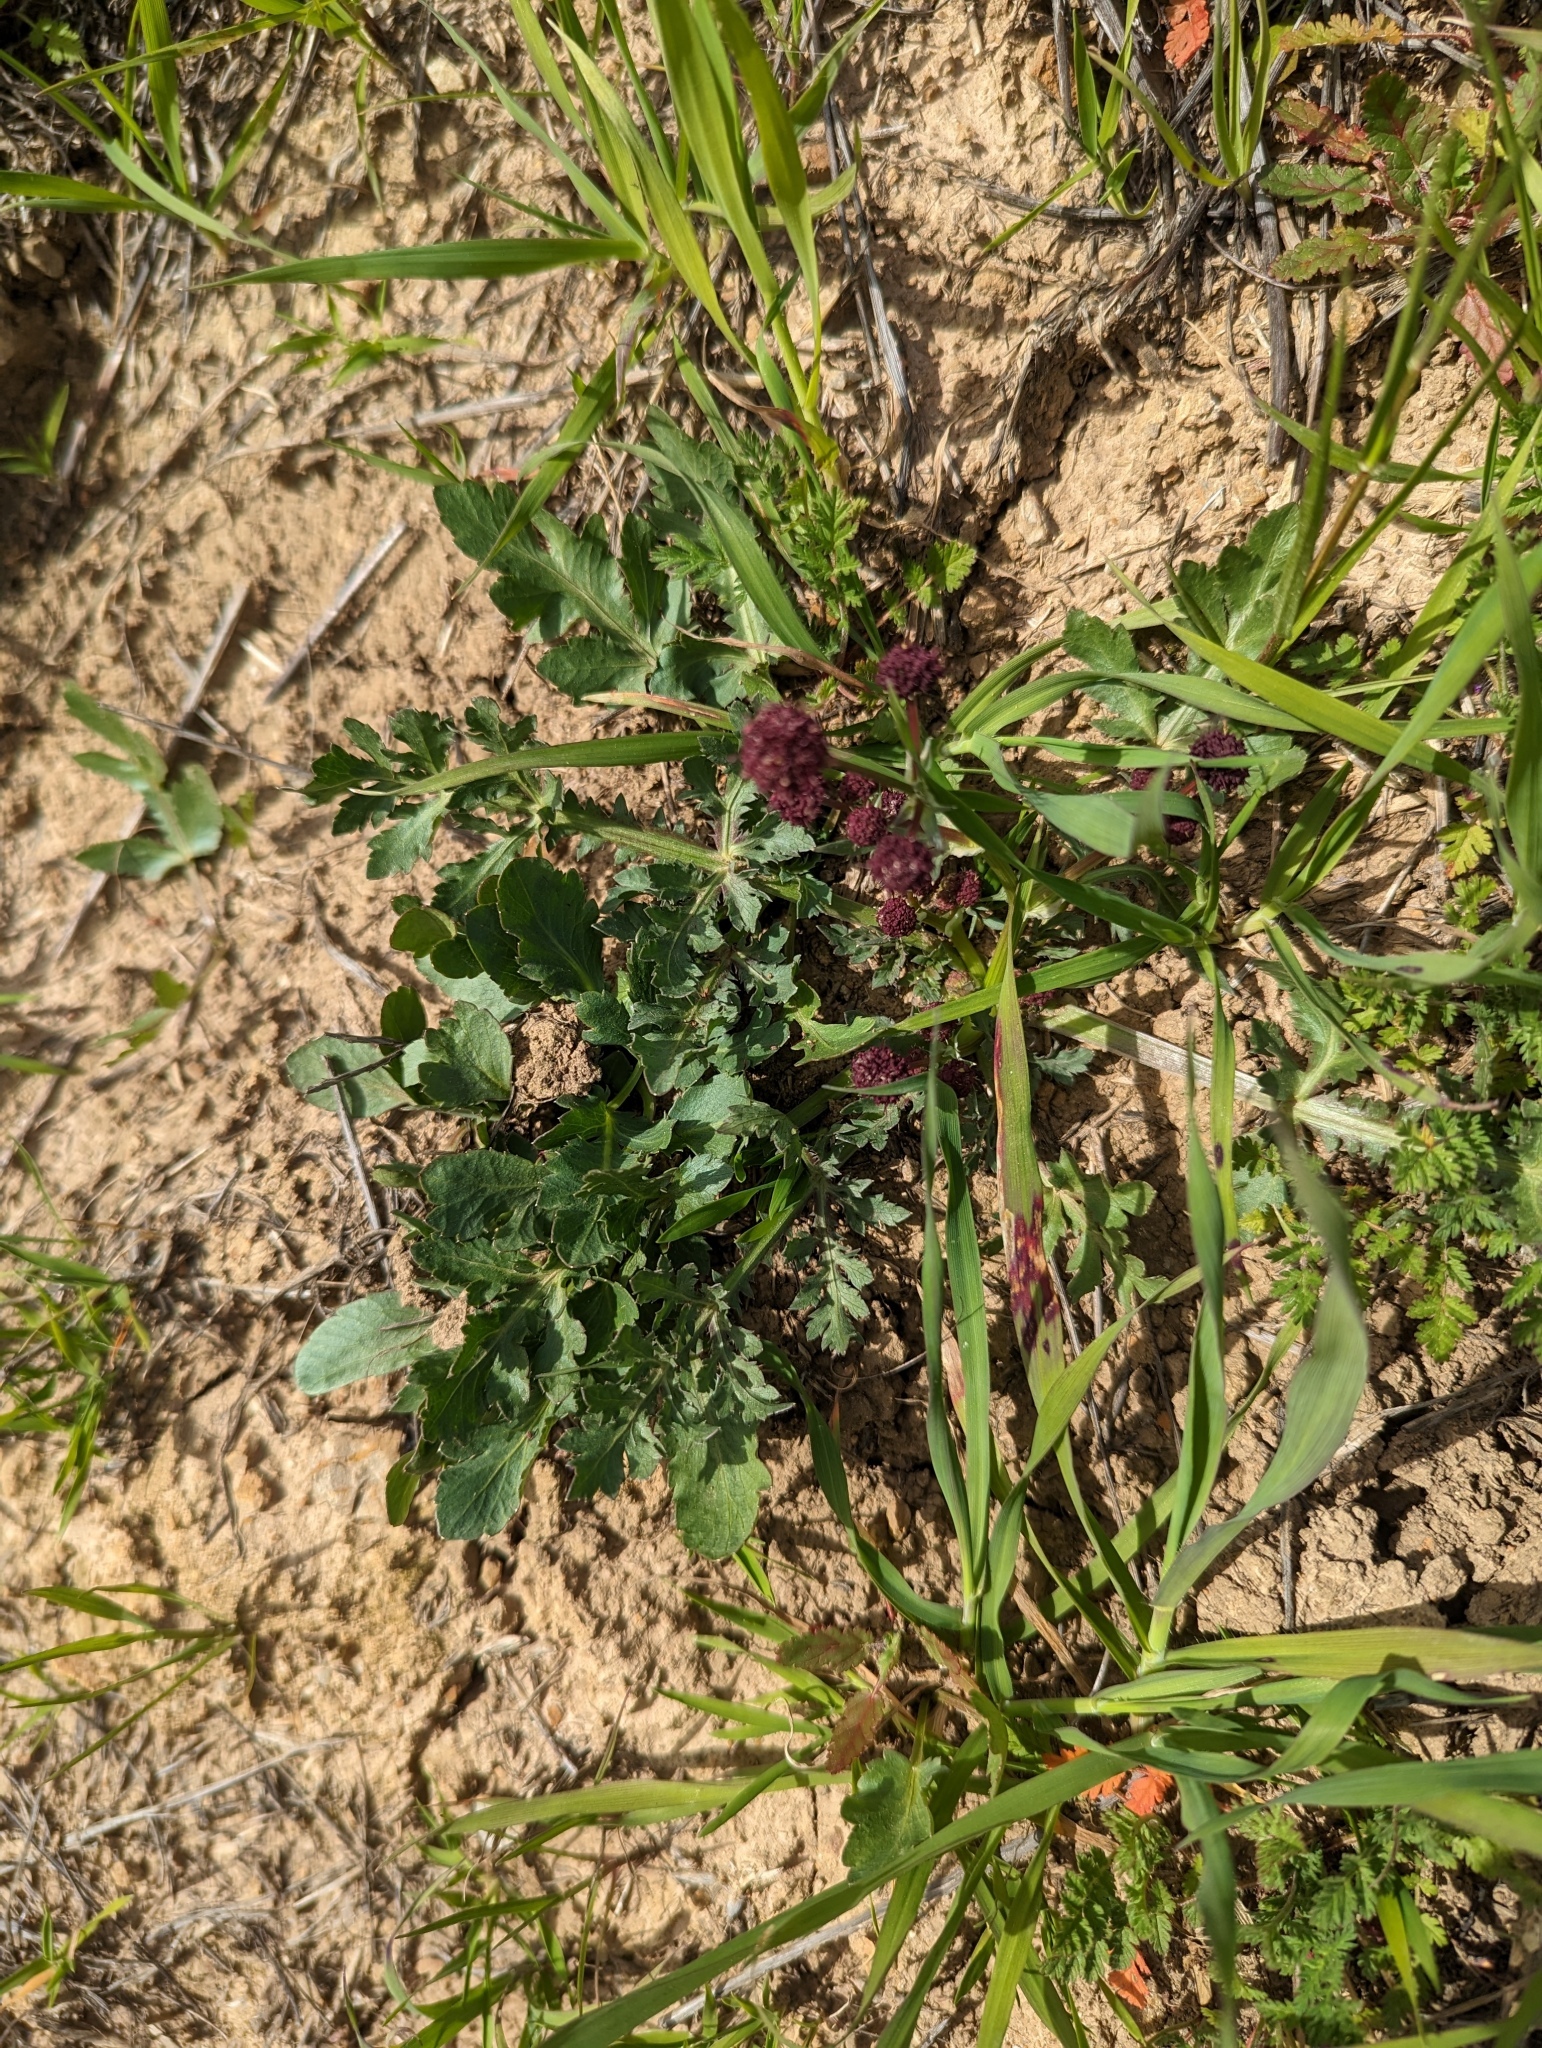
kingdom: Plantae
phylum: Tracheophyta
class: Magnoliopsida
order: Apiales
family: Apiaceae
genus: Sanicula
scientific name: Sanicula bipinnatifida
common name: Shoe-buttons
